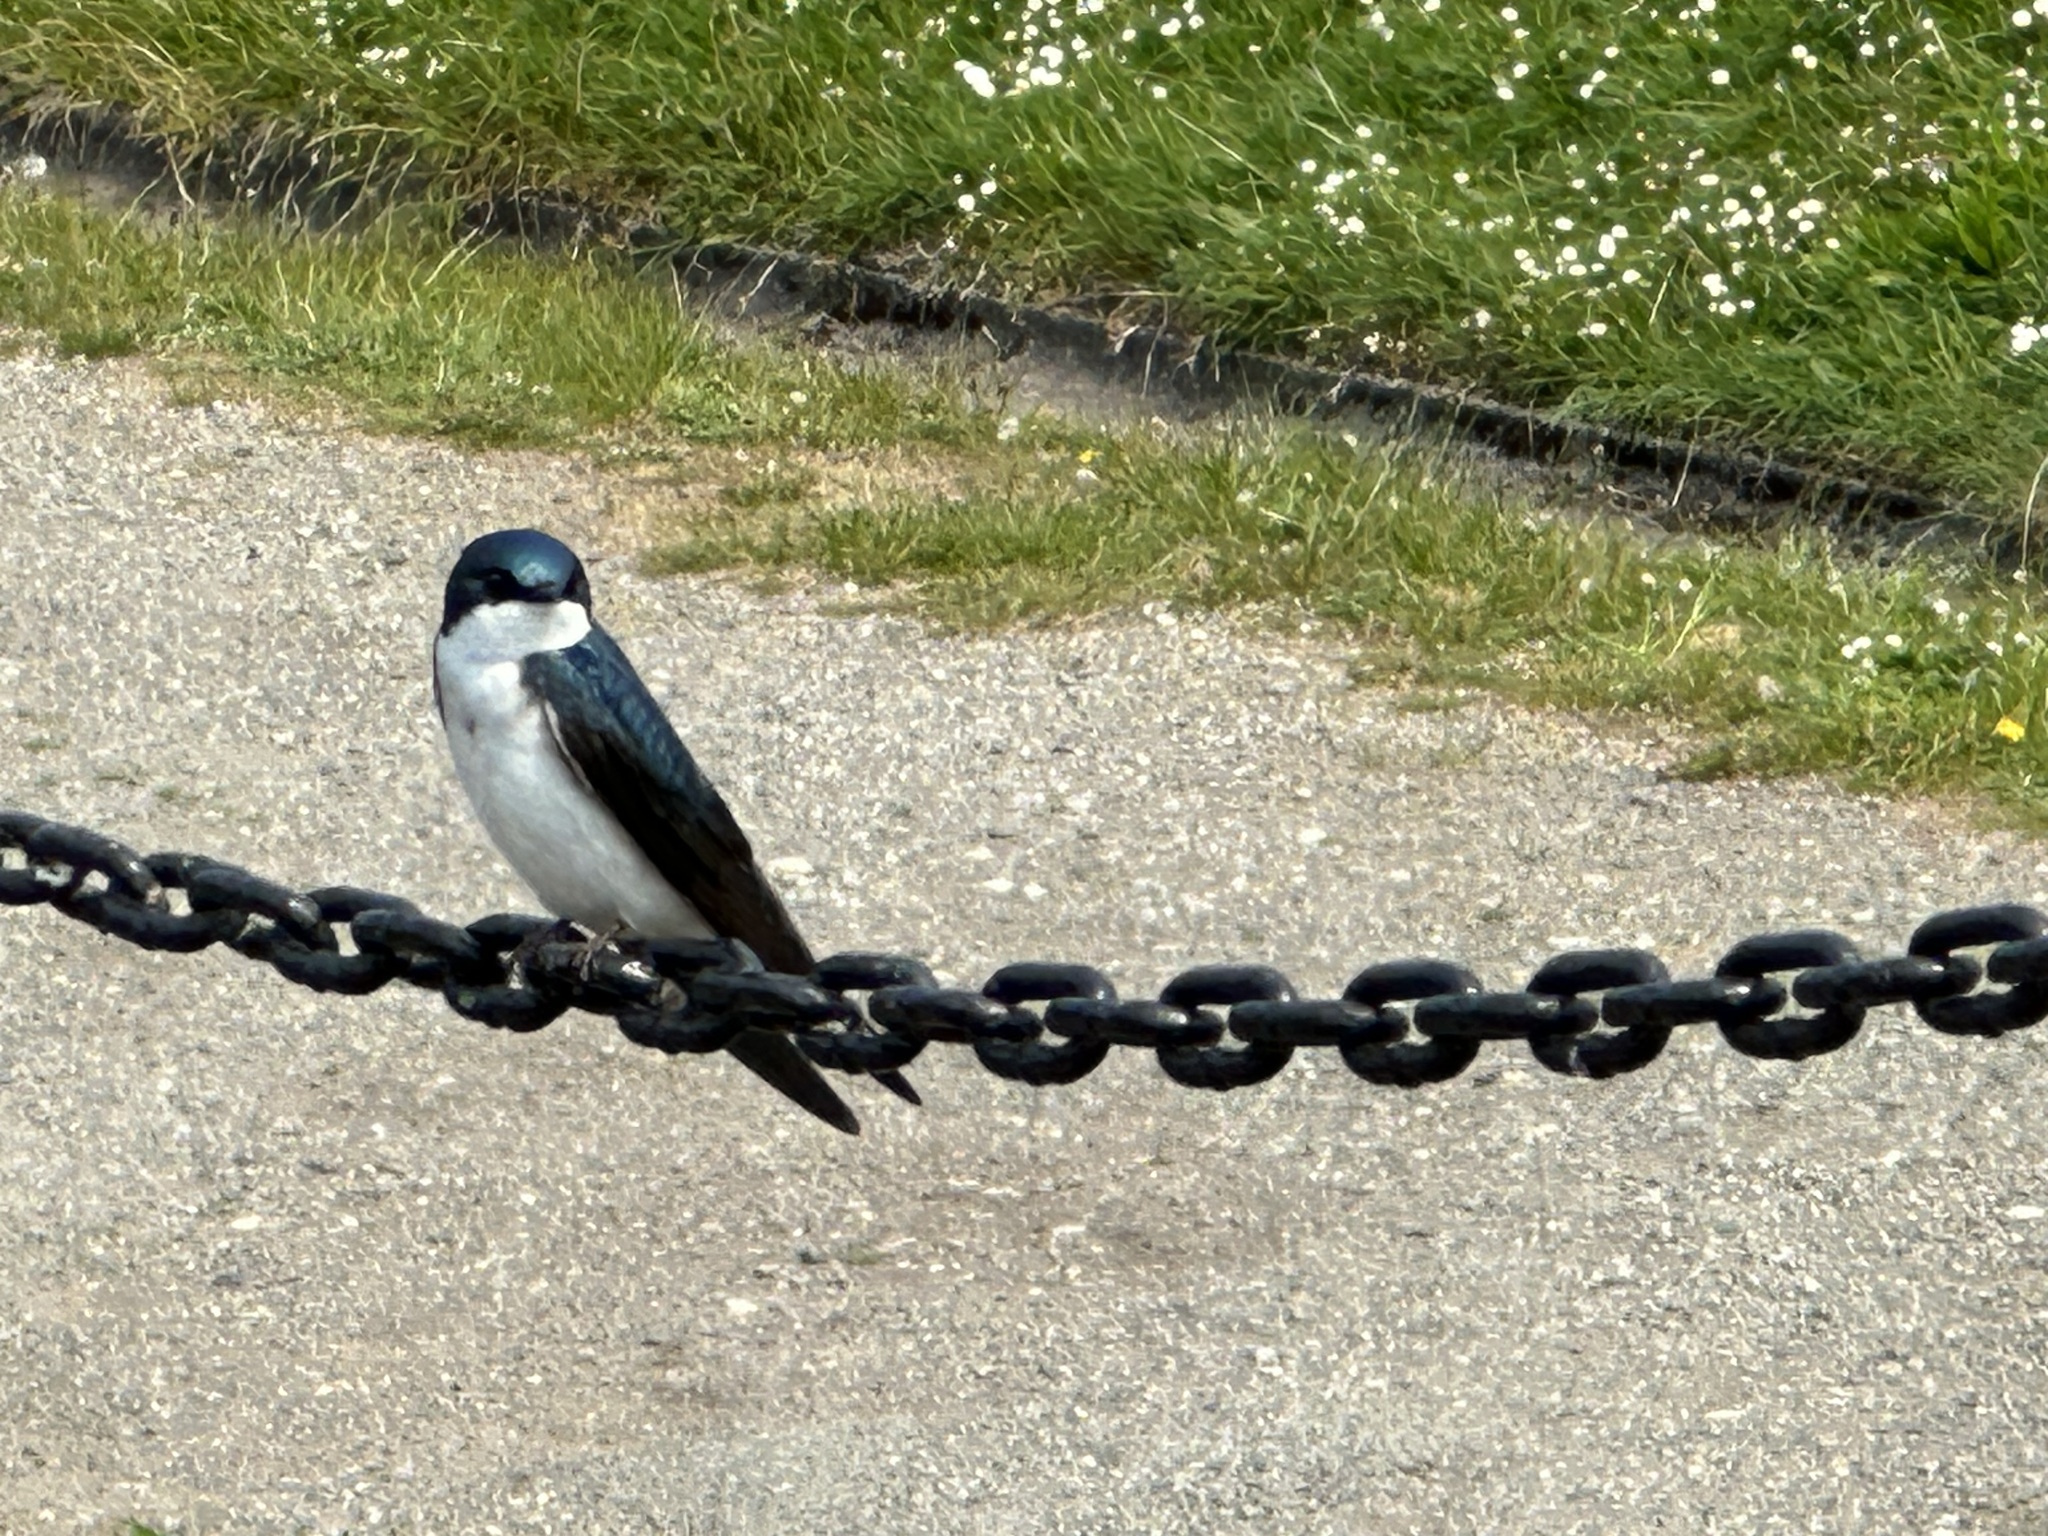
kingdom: Animalia
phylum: Chordata
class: Aves
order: Passeriformes
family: Hirundinidae
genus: Tachycineta
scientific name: Tachycineta bicolor
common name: Tree swallow
